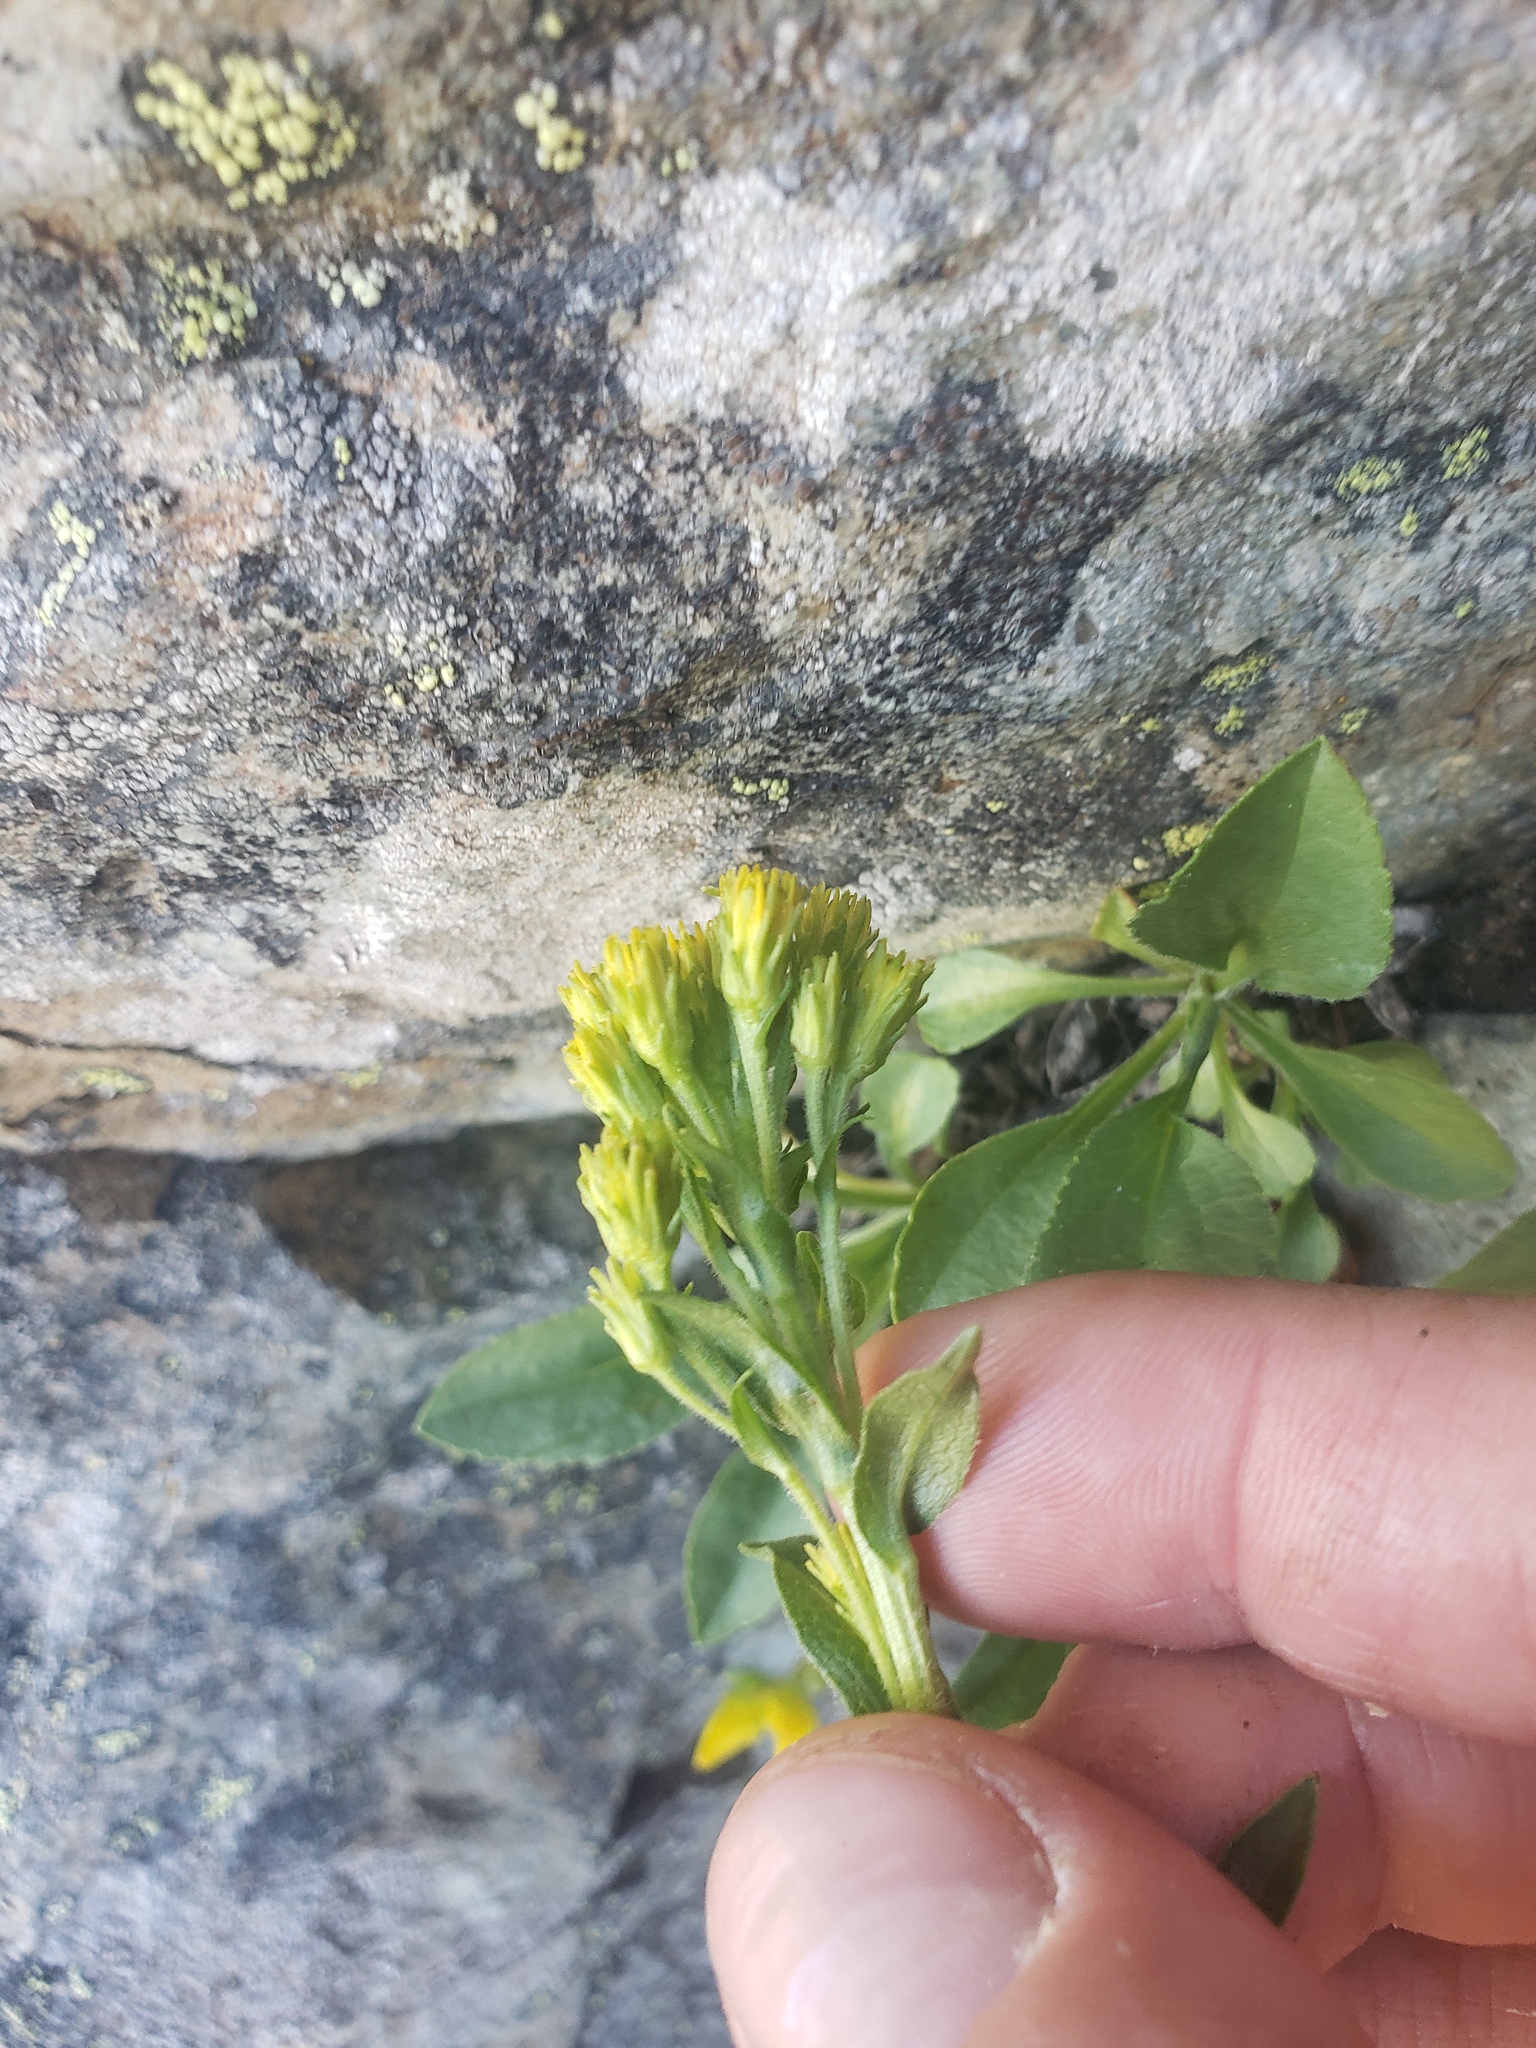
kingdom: Plantae
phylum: Tracheophyta
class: Magnoliopsida
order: Asterales
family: Asteraceae
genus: Solidago
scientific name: Solidago multiradiata
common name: Northern goldenrod
